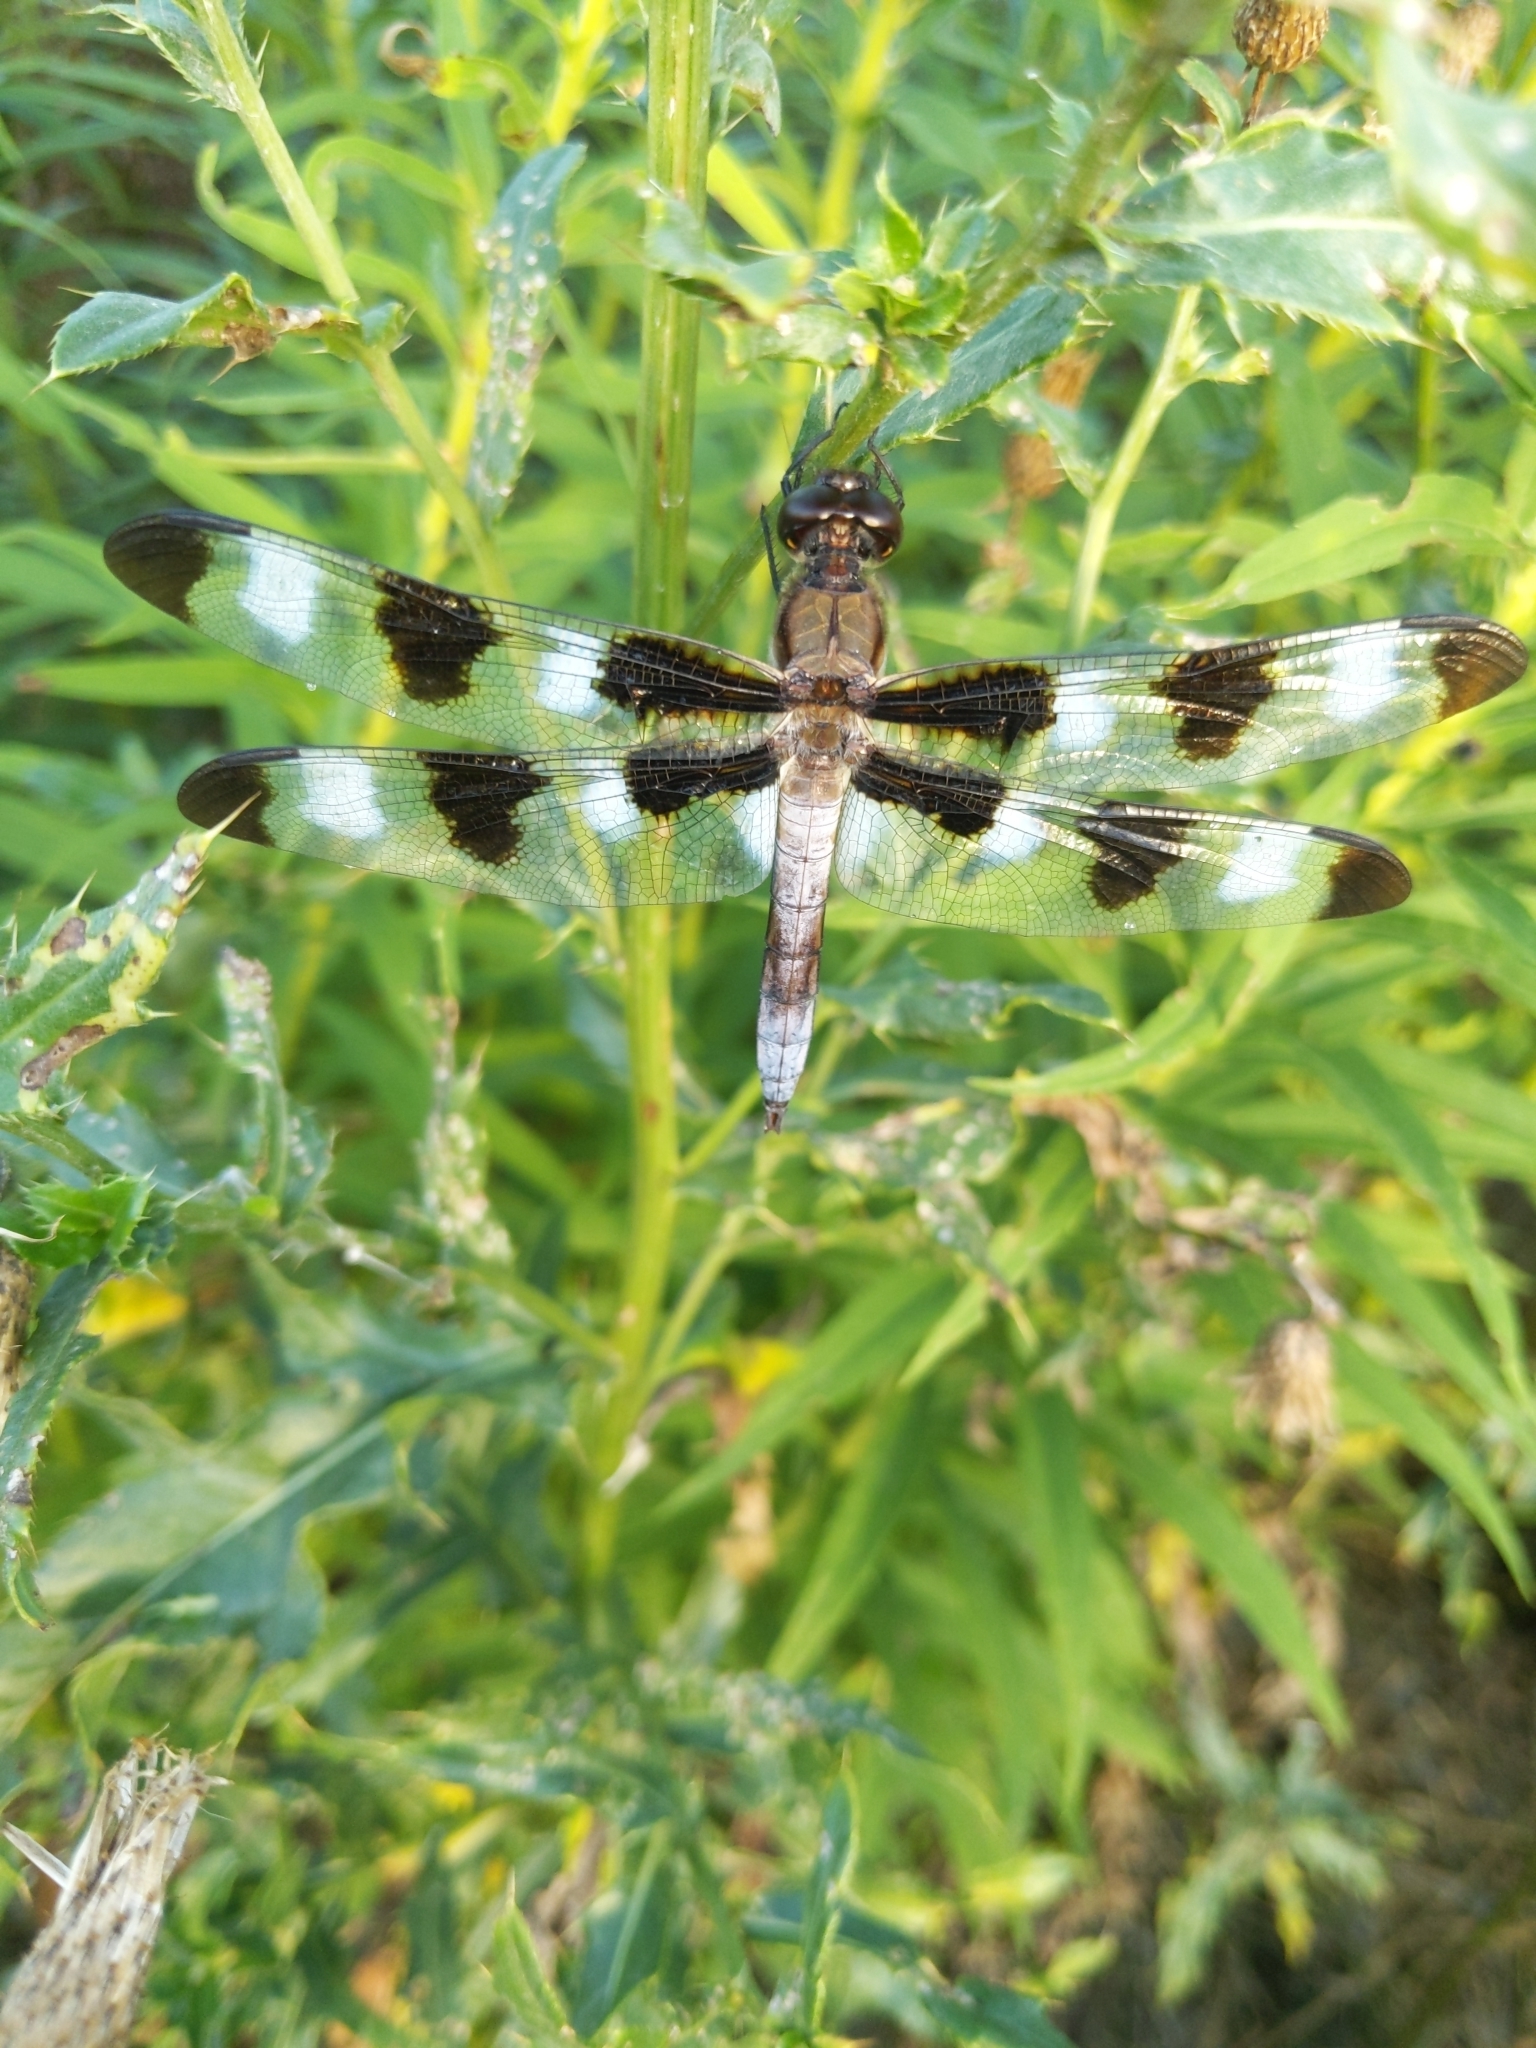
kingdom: Animalia
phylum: Arthropoda
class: Insecta
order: Odonata
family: Libellulidae
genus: Libellula
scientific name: Libellula pulchella
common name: Twelve-spotted skimmer
